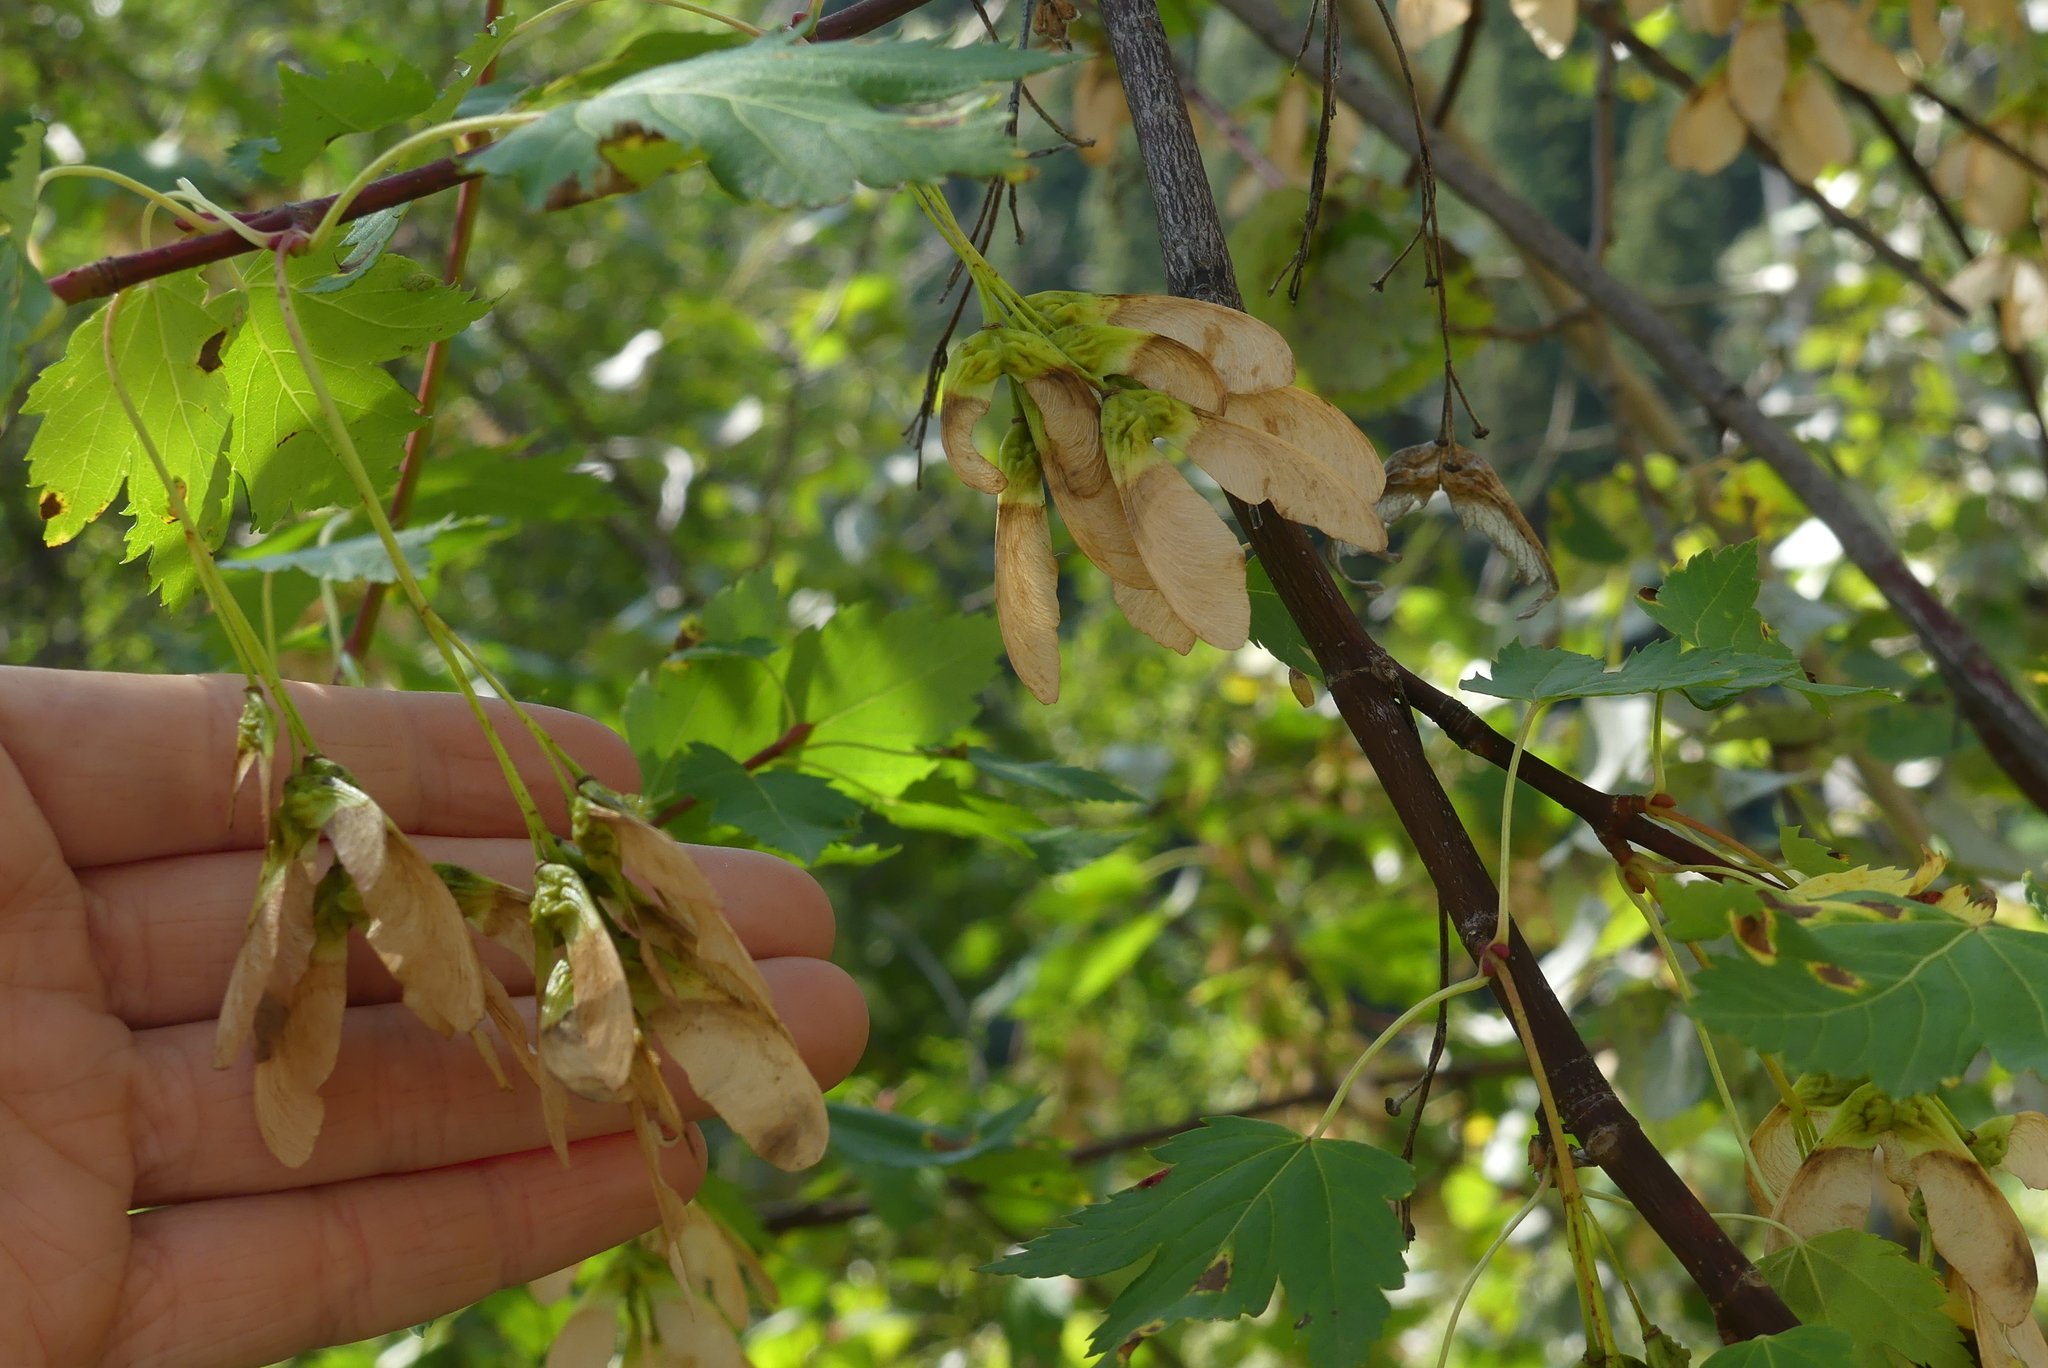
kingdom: Plantae
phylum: Tracheophyta
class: Magnoliopsida
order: Sapindales
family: Sapindaceae
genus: Acer
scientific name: Acer glabrum
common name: Rocky mountain maple
